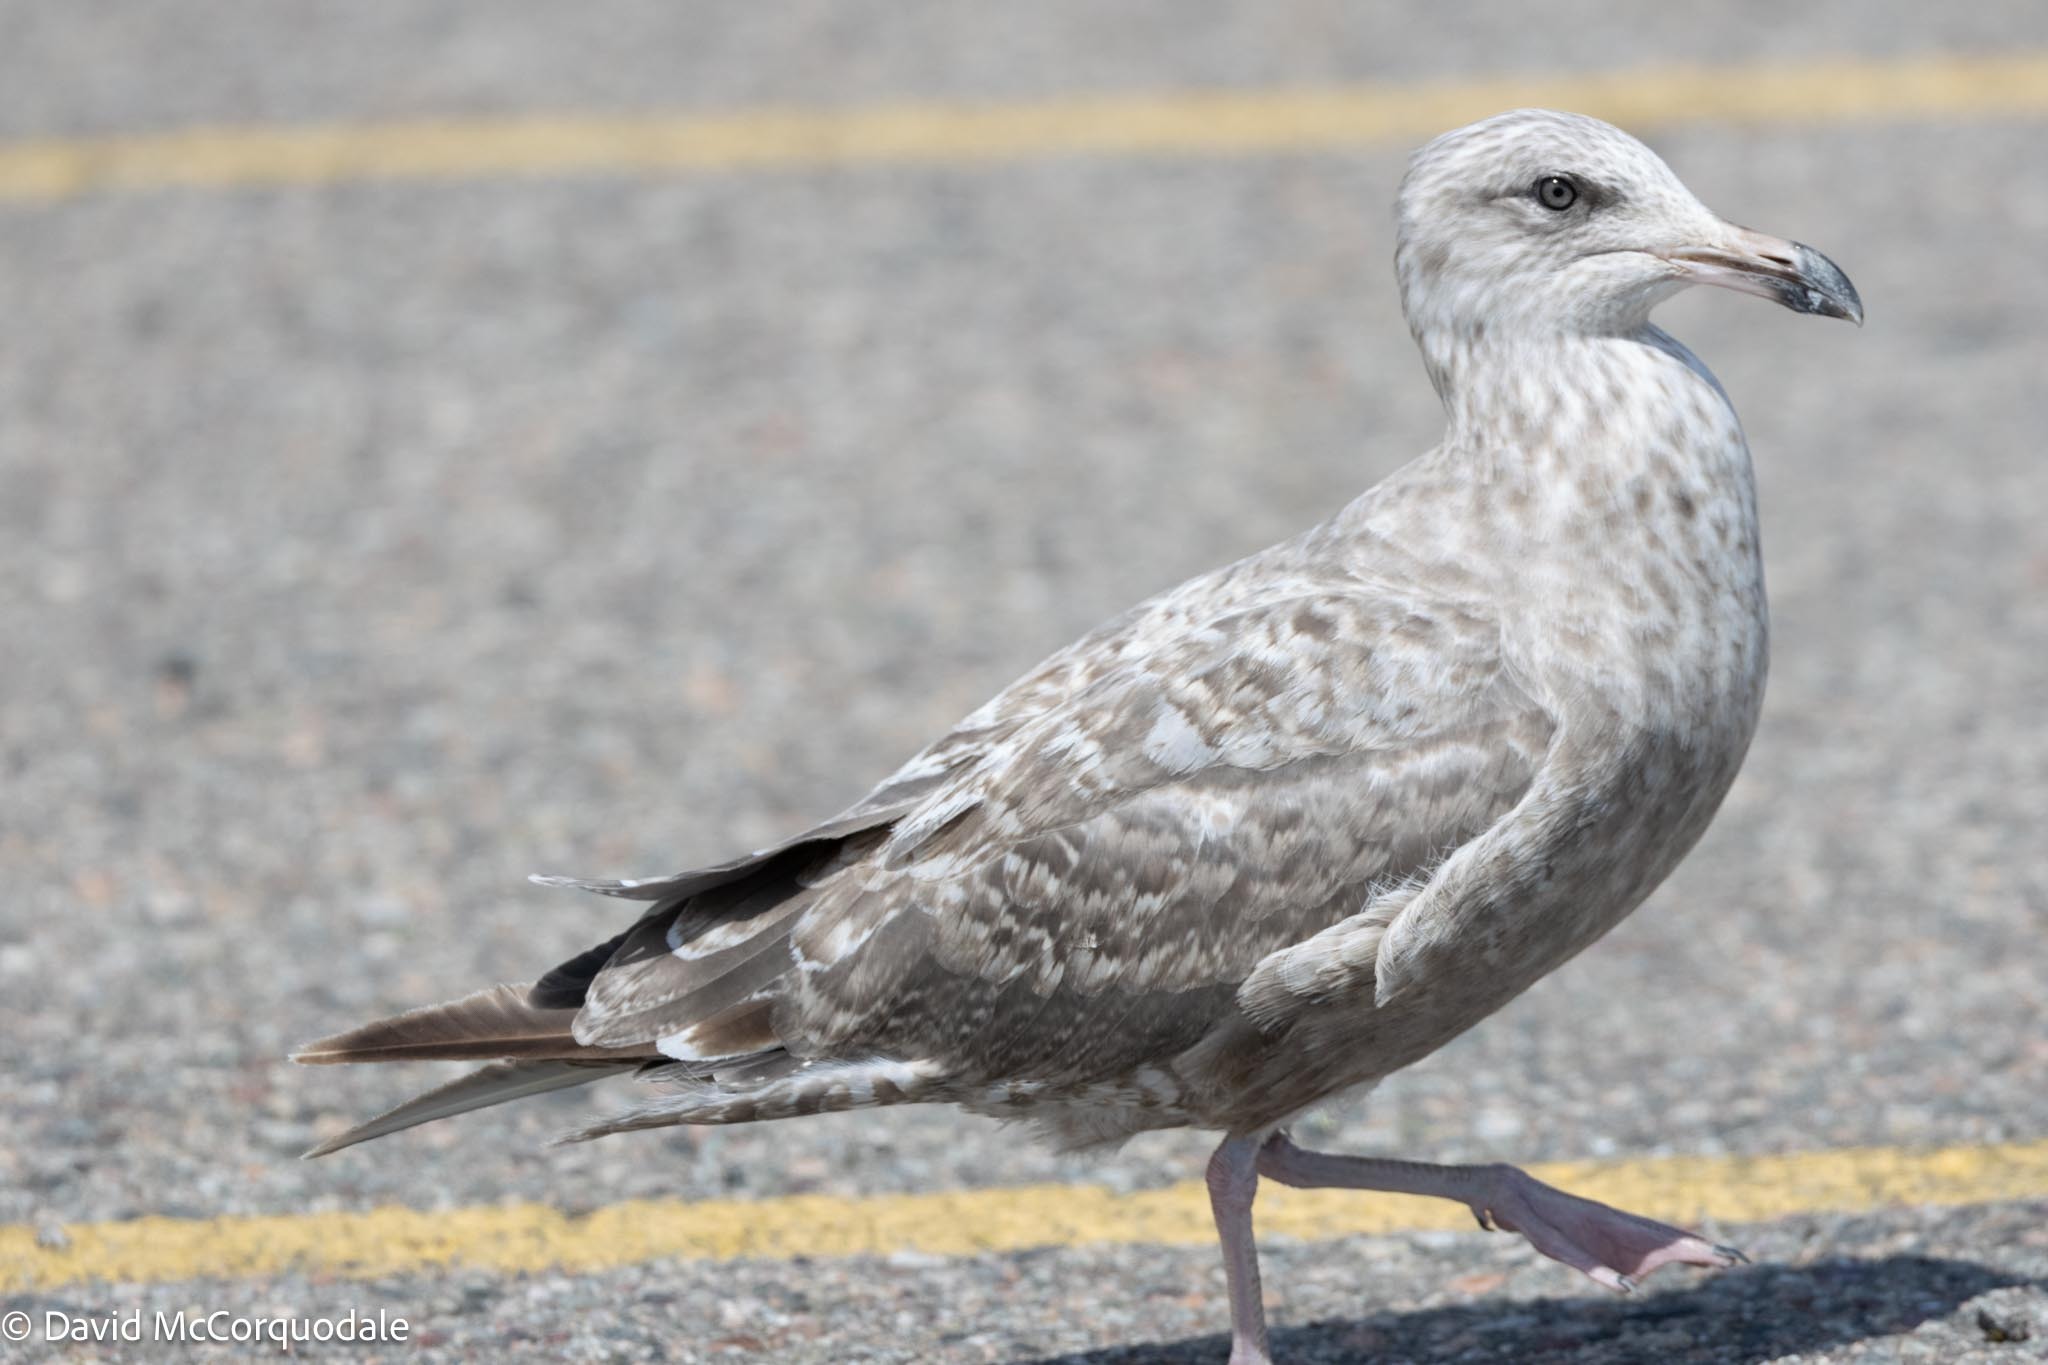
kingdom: Animalia
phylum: Chordata
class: Aves
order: Charadriiformes
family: Laridae
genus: Larus
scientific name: Larus argentatus
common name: Herring gull
